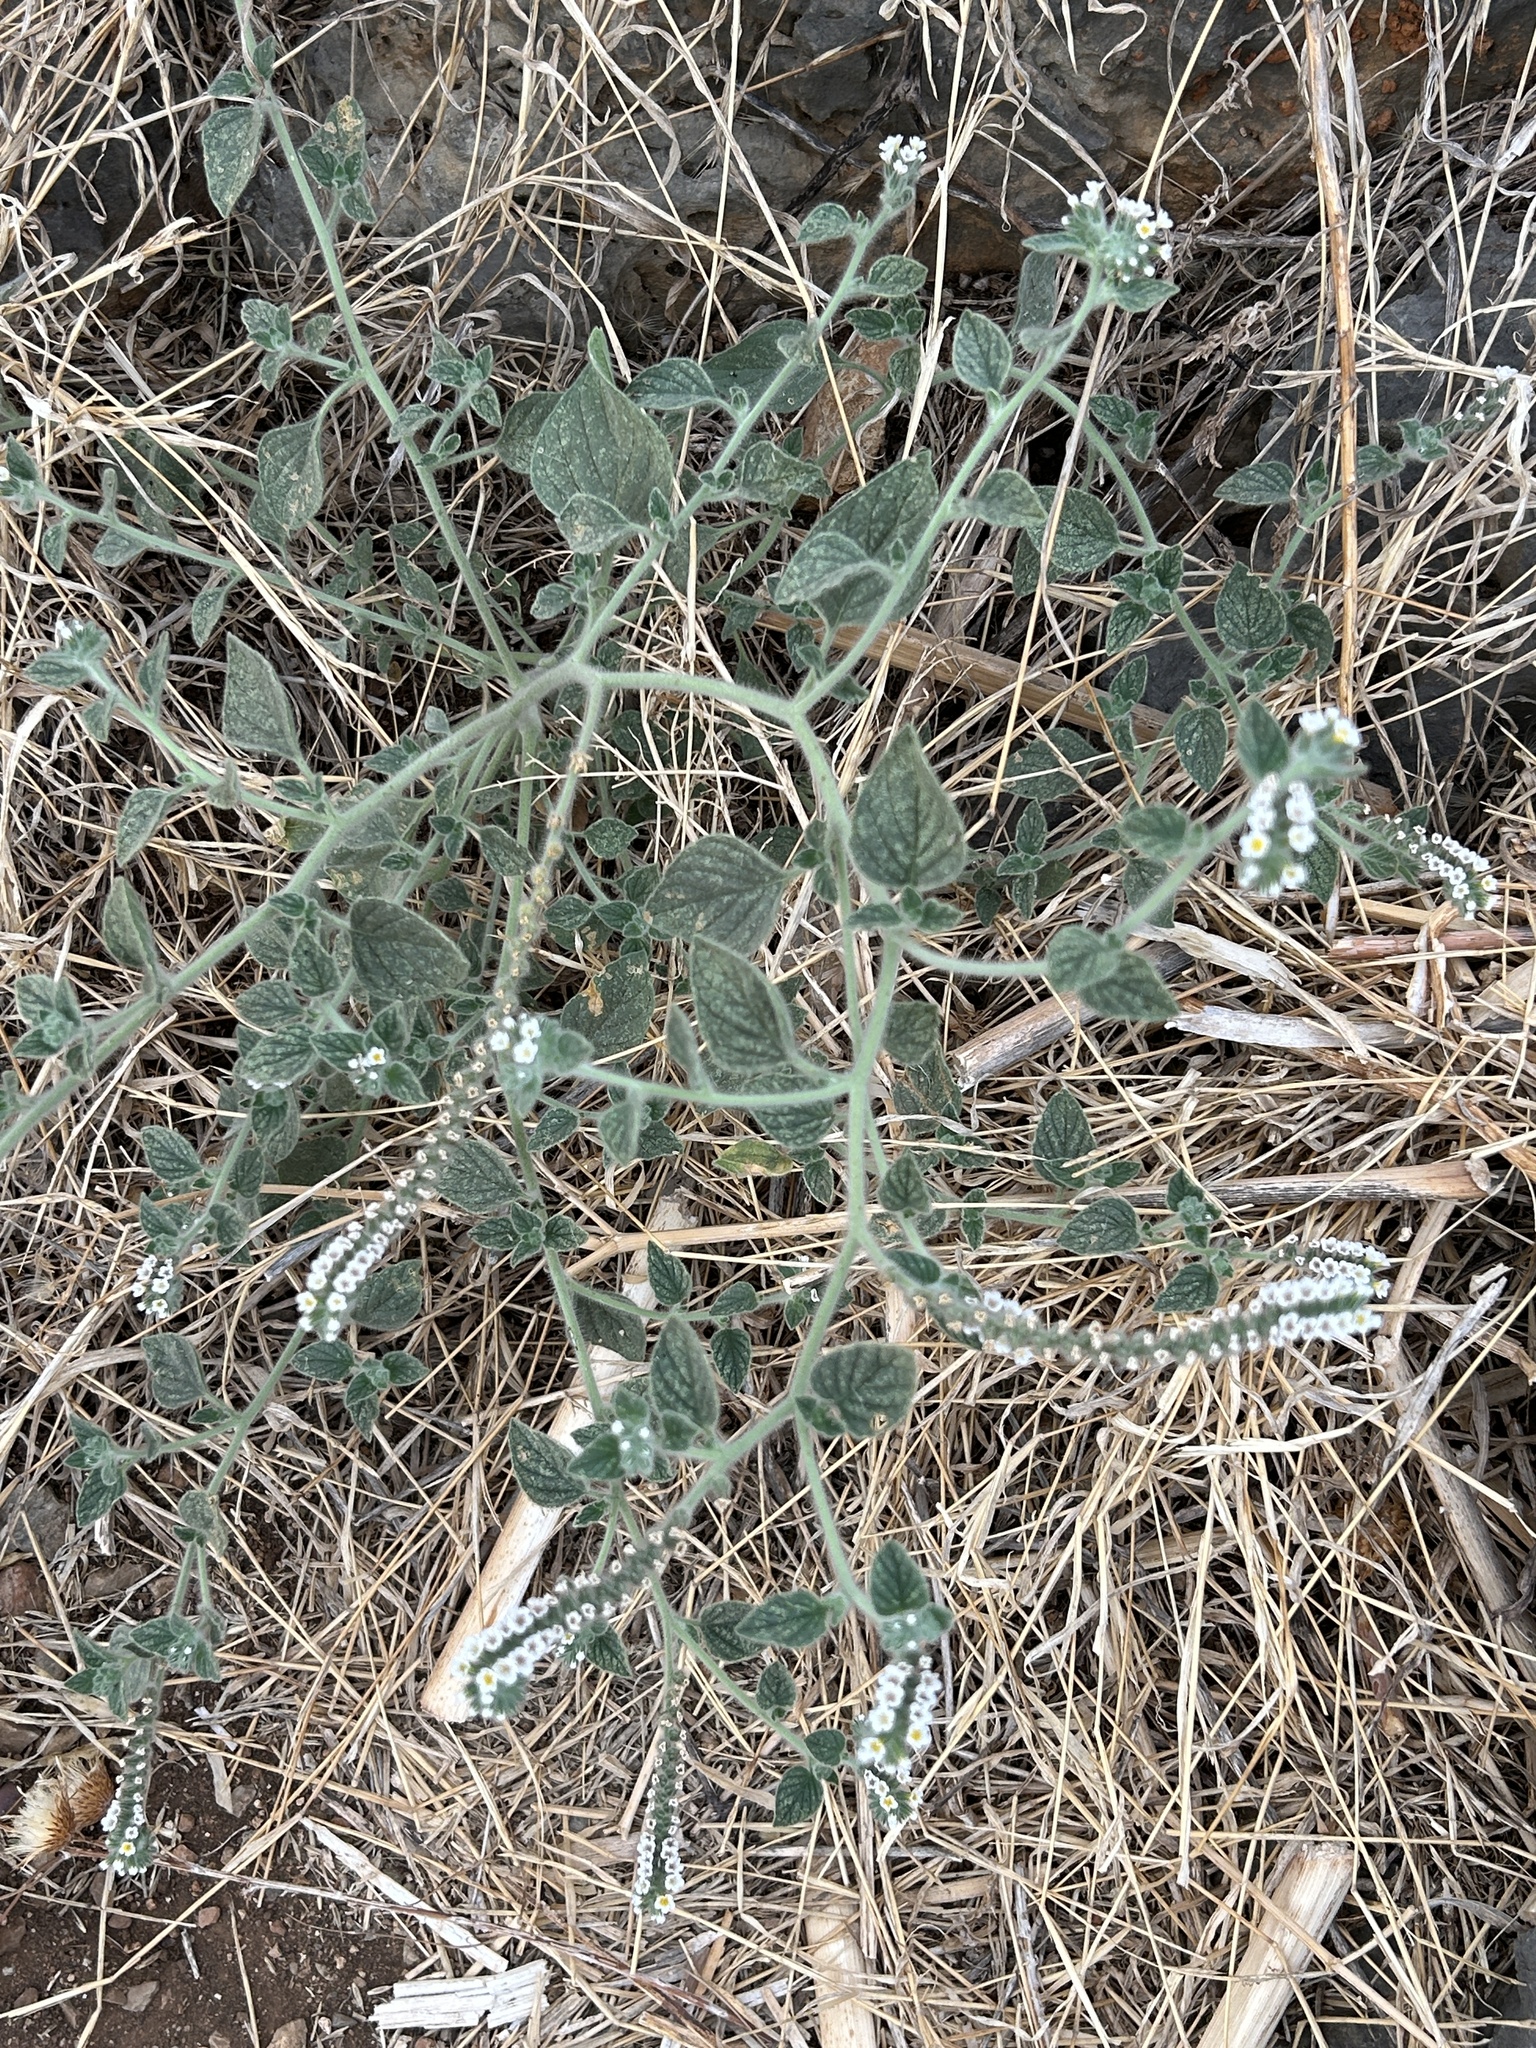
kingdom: Plantae
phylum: Tracheophyta
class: Magnoliopsida
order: Boraginales
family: Heliotropiaceae
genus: Heliotropium
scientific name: Heliotropium hirsutissimum
